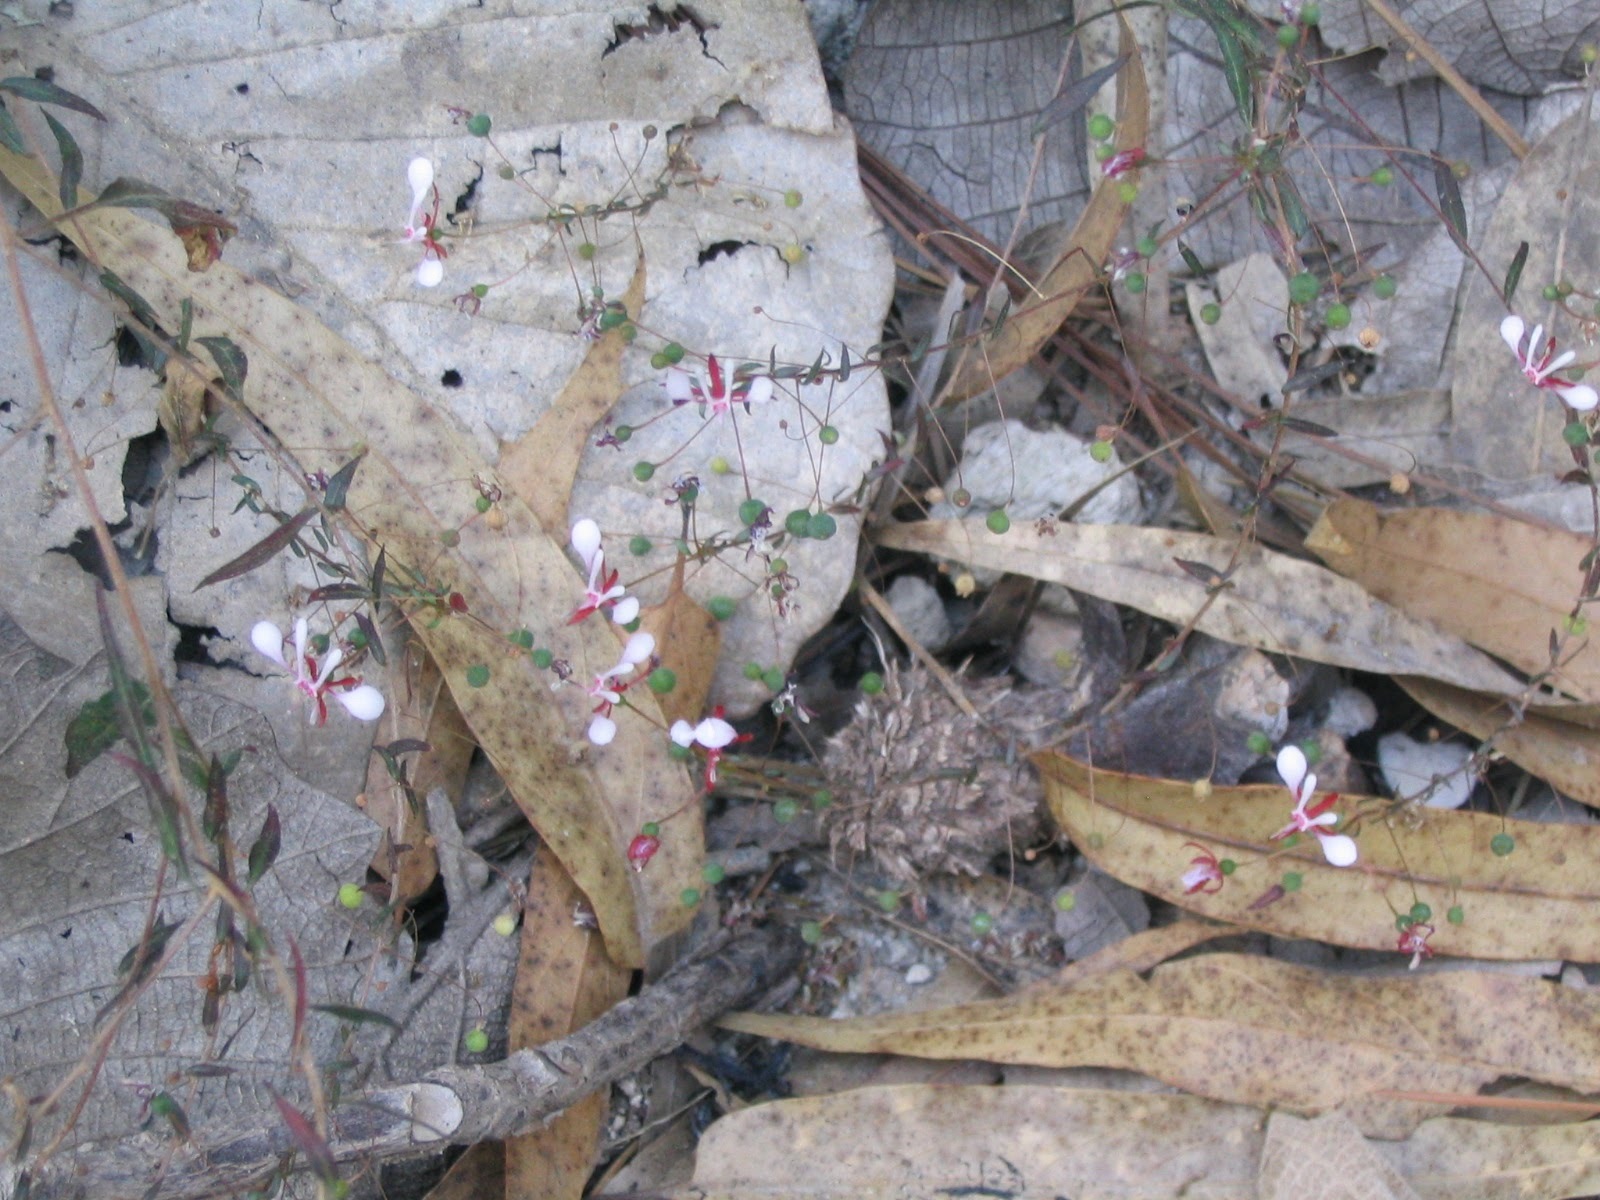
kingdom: Plantae
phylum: Tracheophyta
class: Magnoliopsida
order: Myrtales
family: Onagraceae
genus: Lopezia
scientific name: Lopezia racemosa
